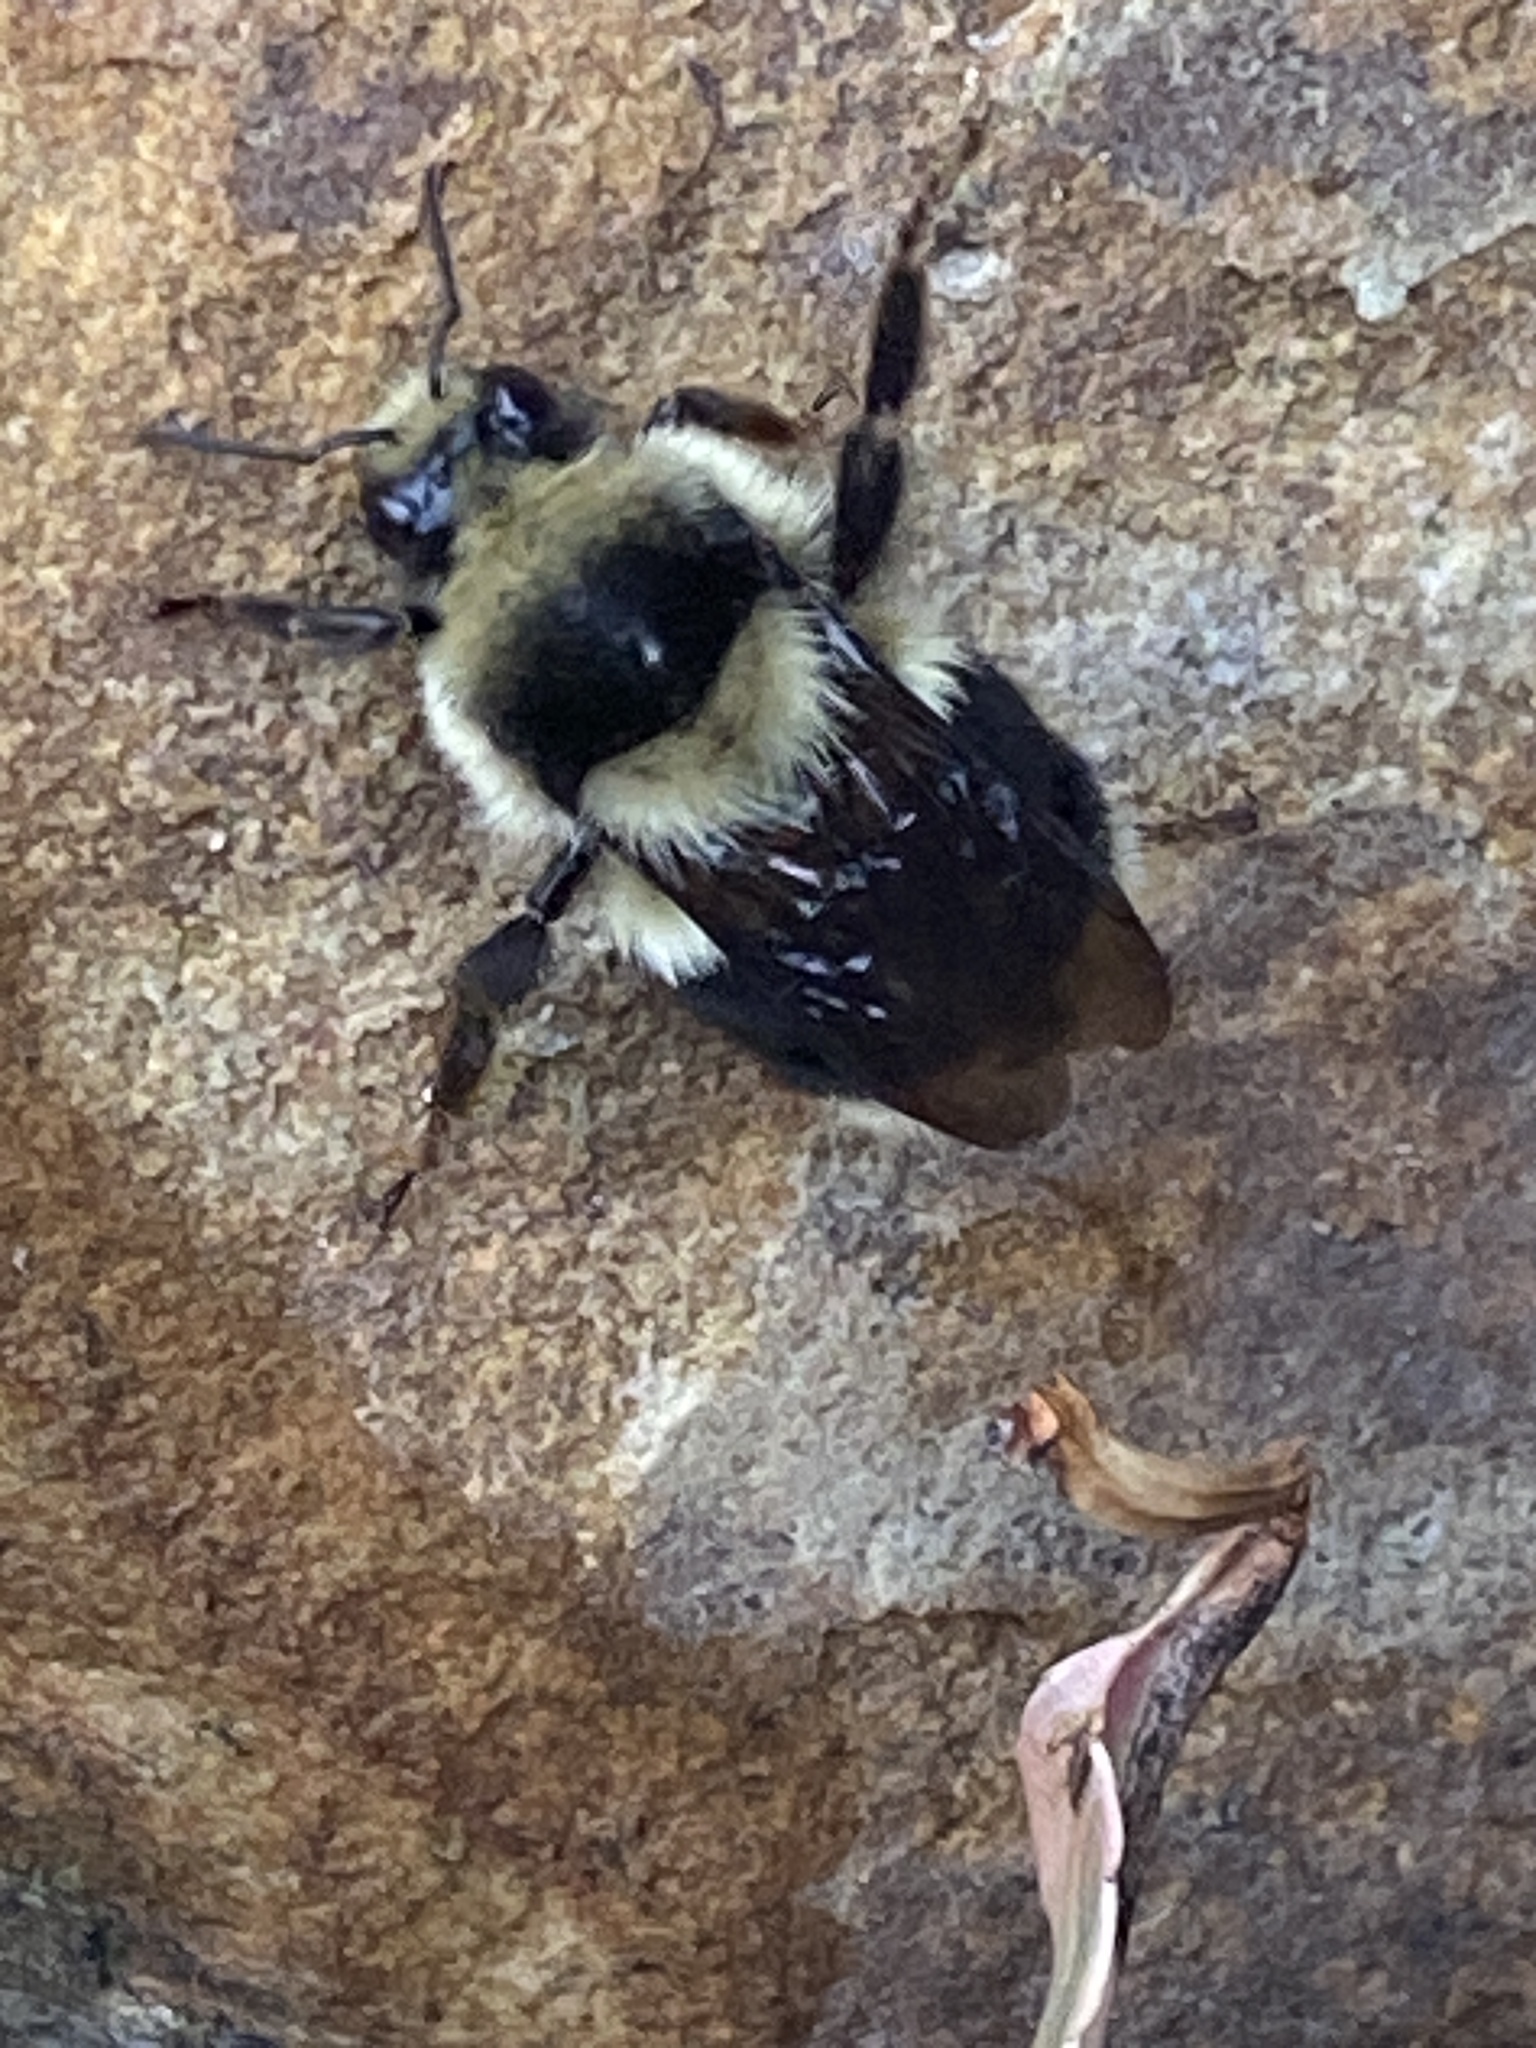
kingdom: Animalia
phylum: Arthropoda
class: Insecta
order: Hymenoptera
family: Apidae
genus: Bombus
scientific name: Bombus melanopygus
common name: Black tail bumble bee
